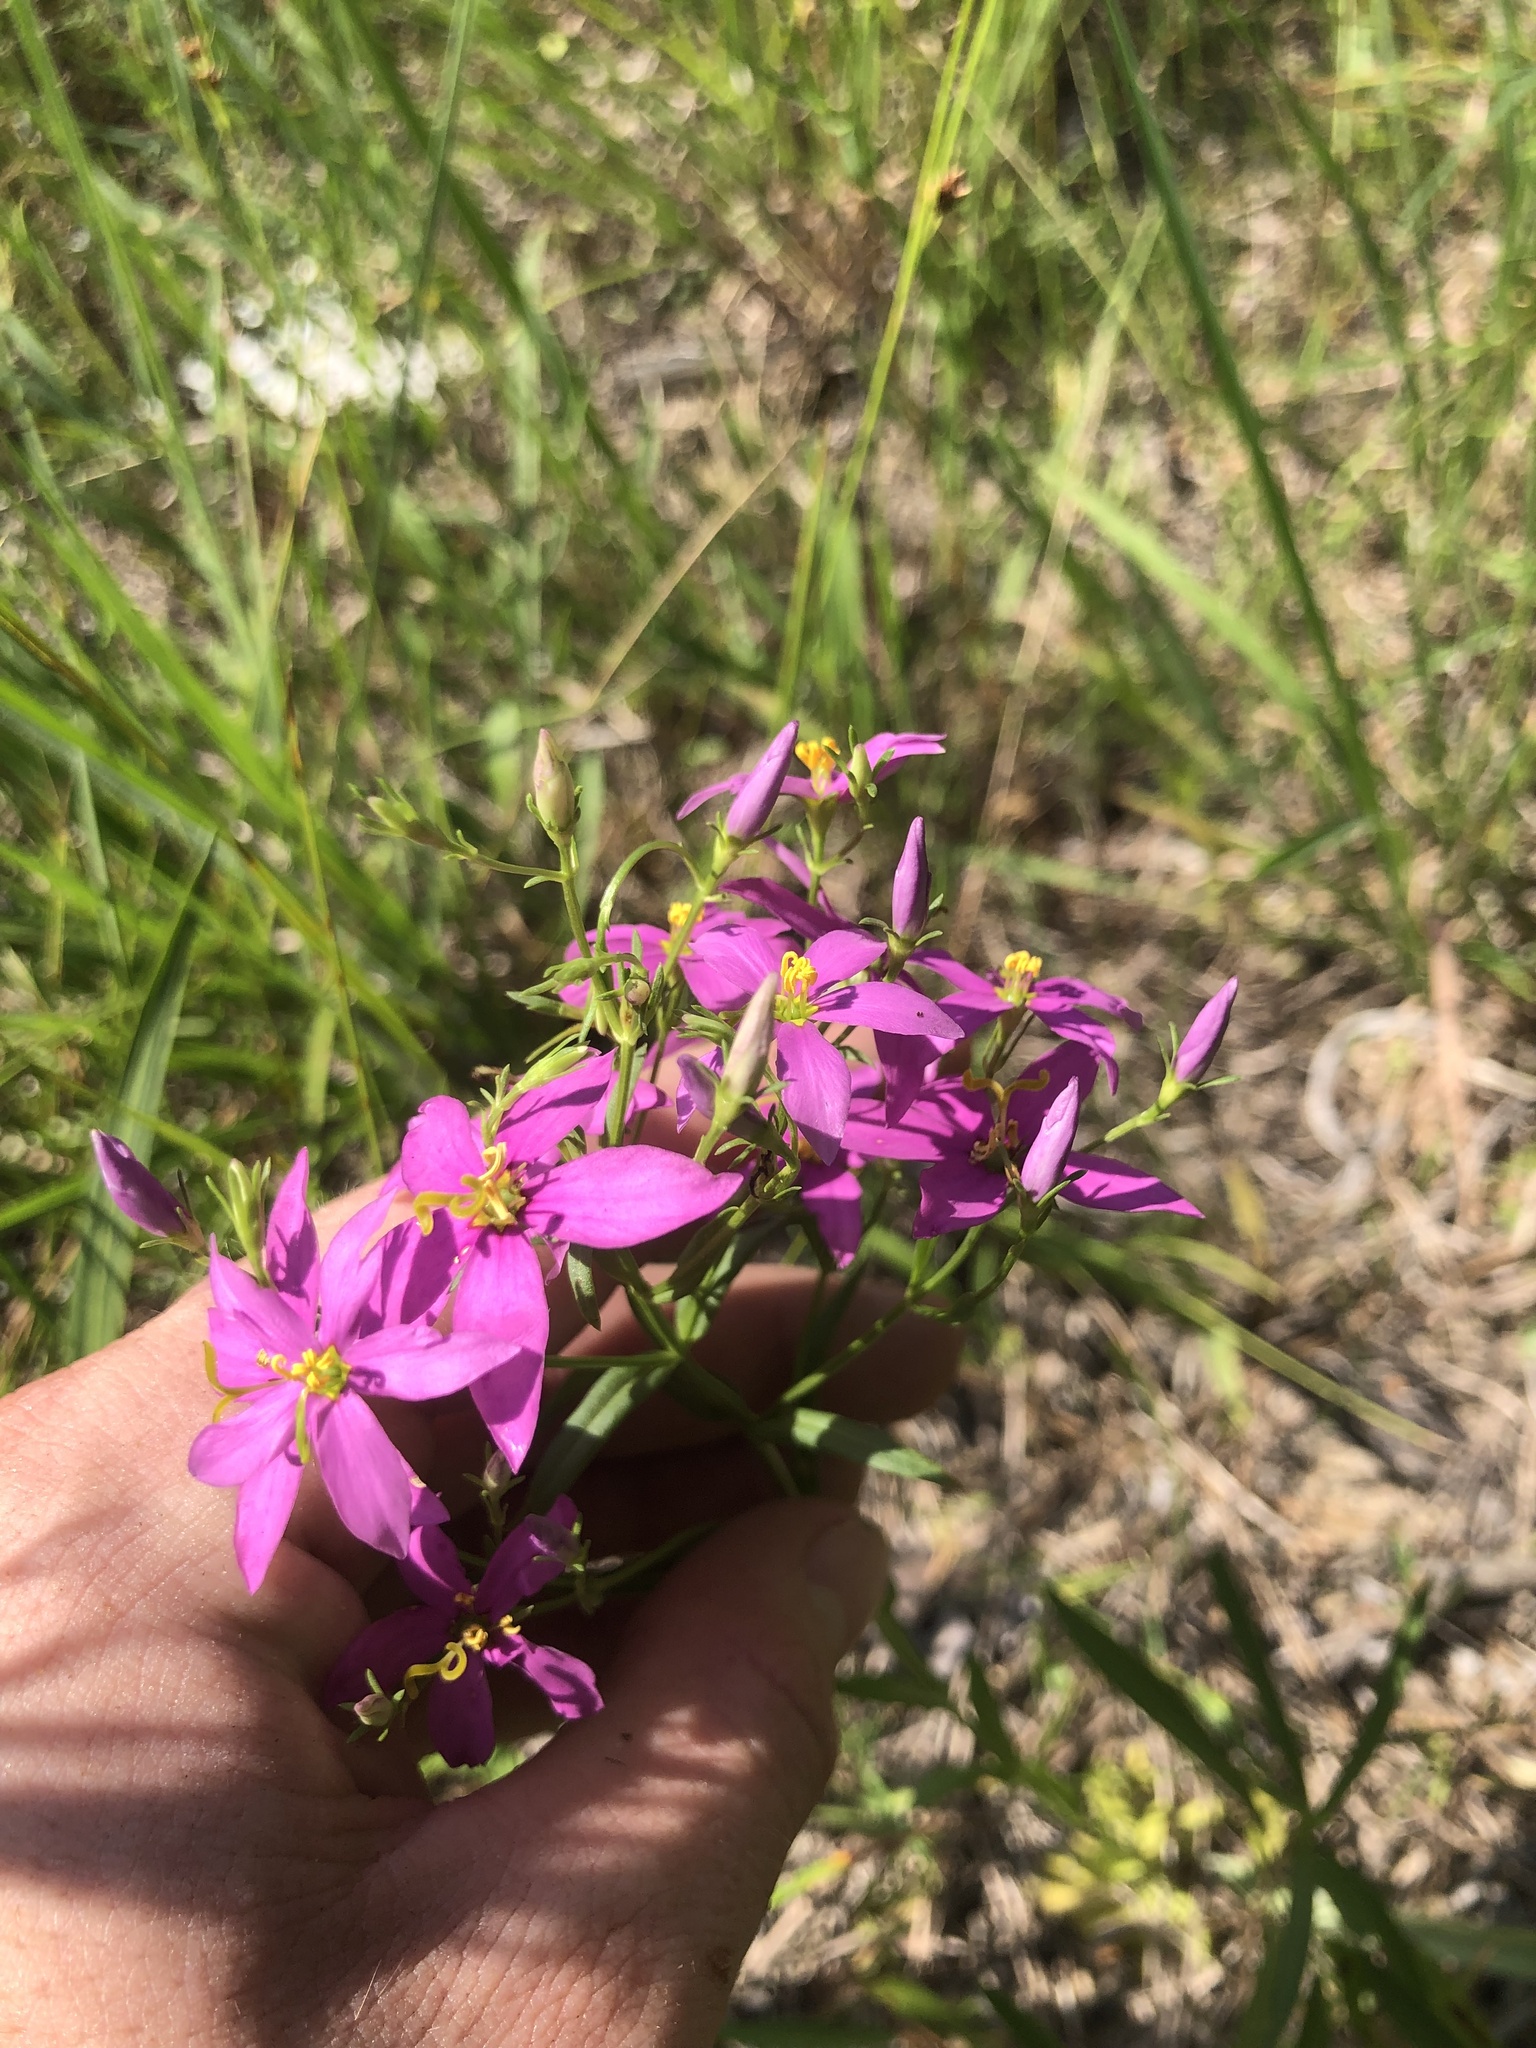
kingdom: Plantae
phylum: Tracheophyta
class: Magnoliopsida
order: Gentianales
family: Gentianaceae
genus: Sabatia
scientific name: Sabatia brachiata
